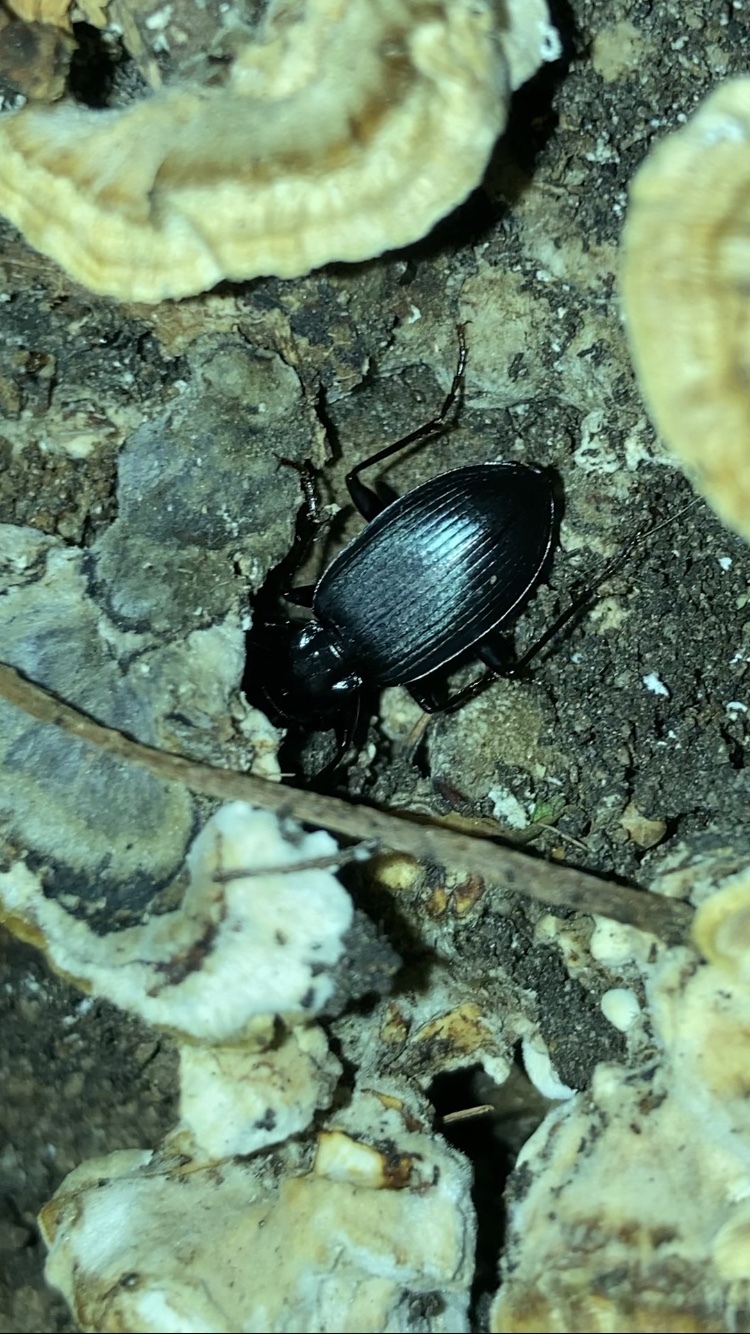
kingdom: Animalia
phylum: Arthropoda
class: Insecta
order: Coleoptera
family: Carabidae
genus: Laemostenus
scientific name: Laemostenus complanatus
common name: Cosmopolitan ground beetle
